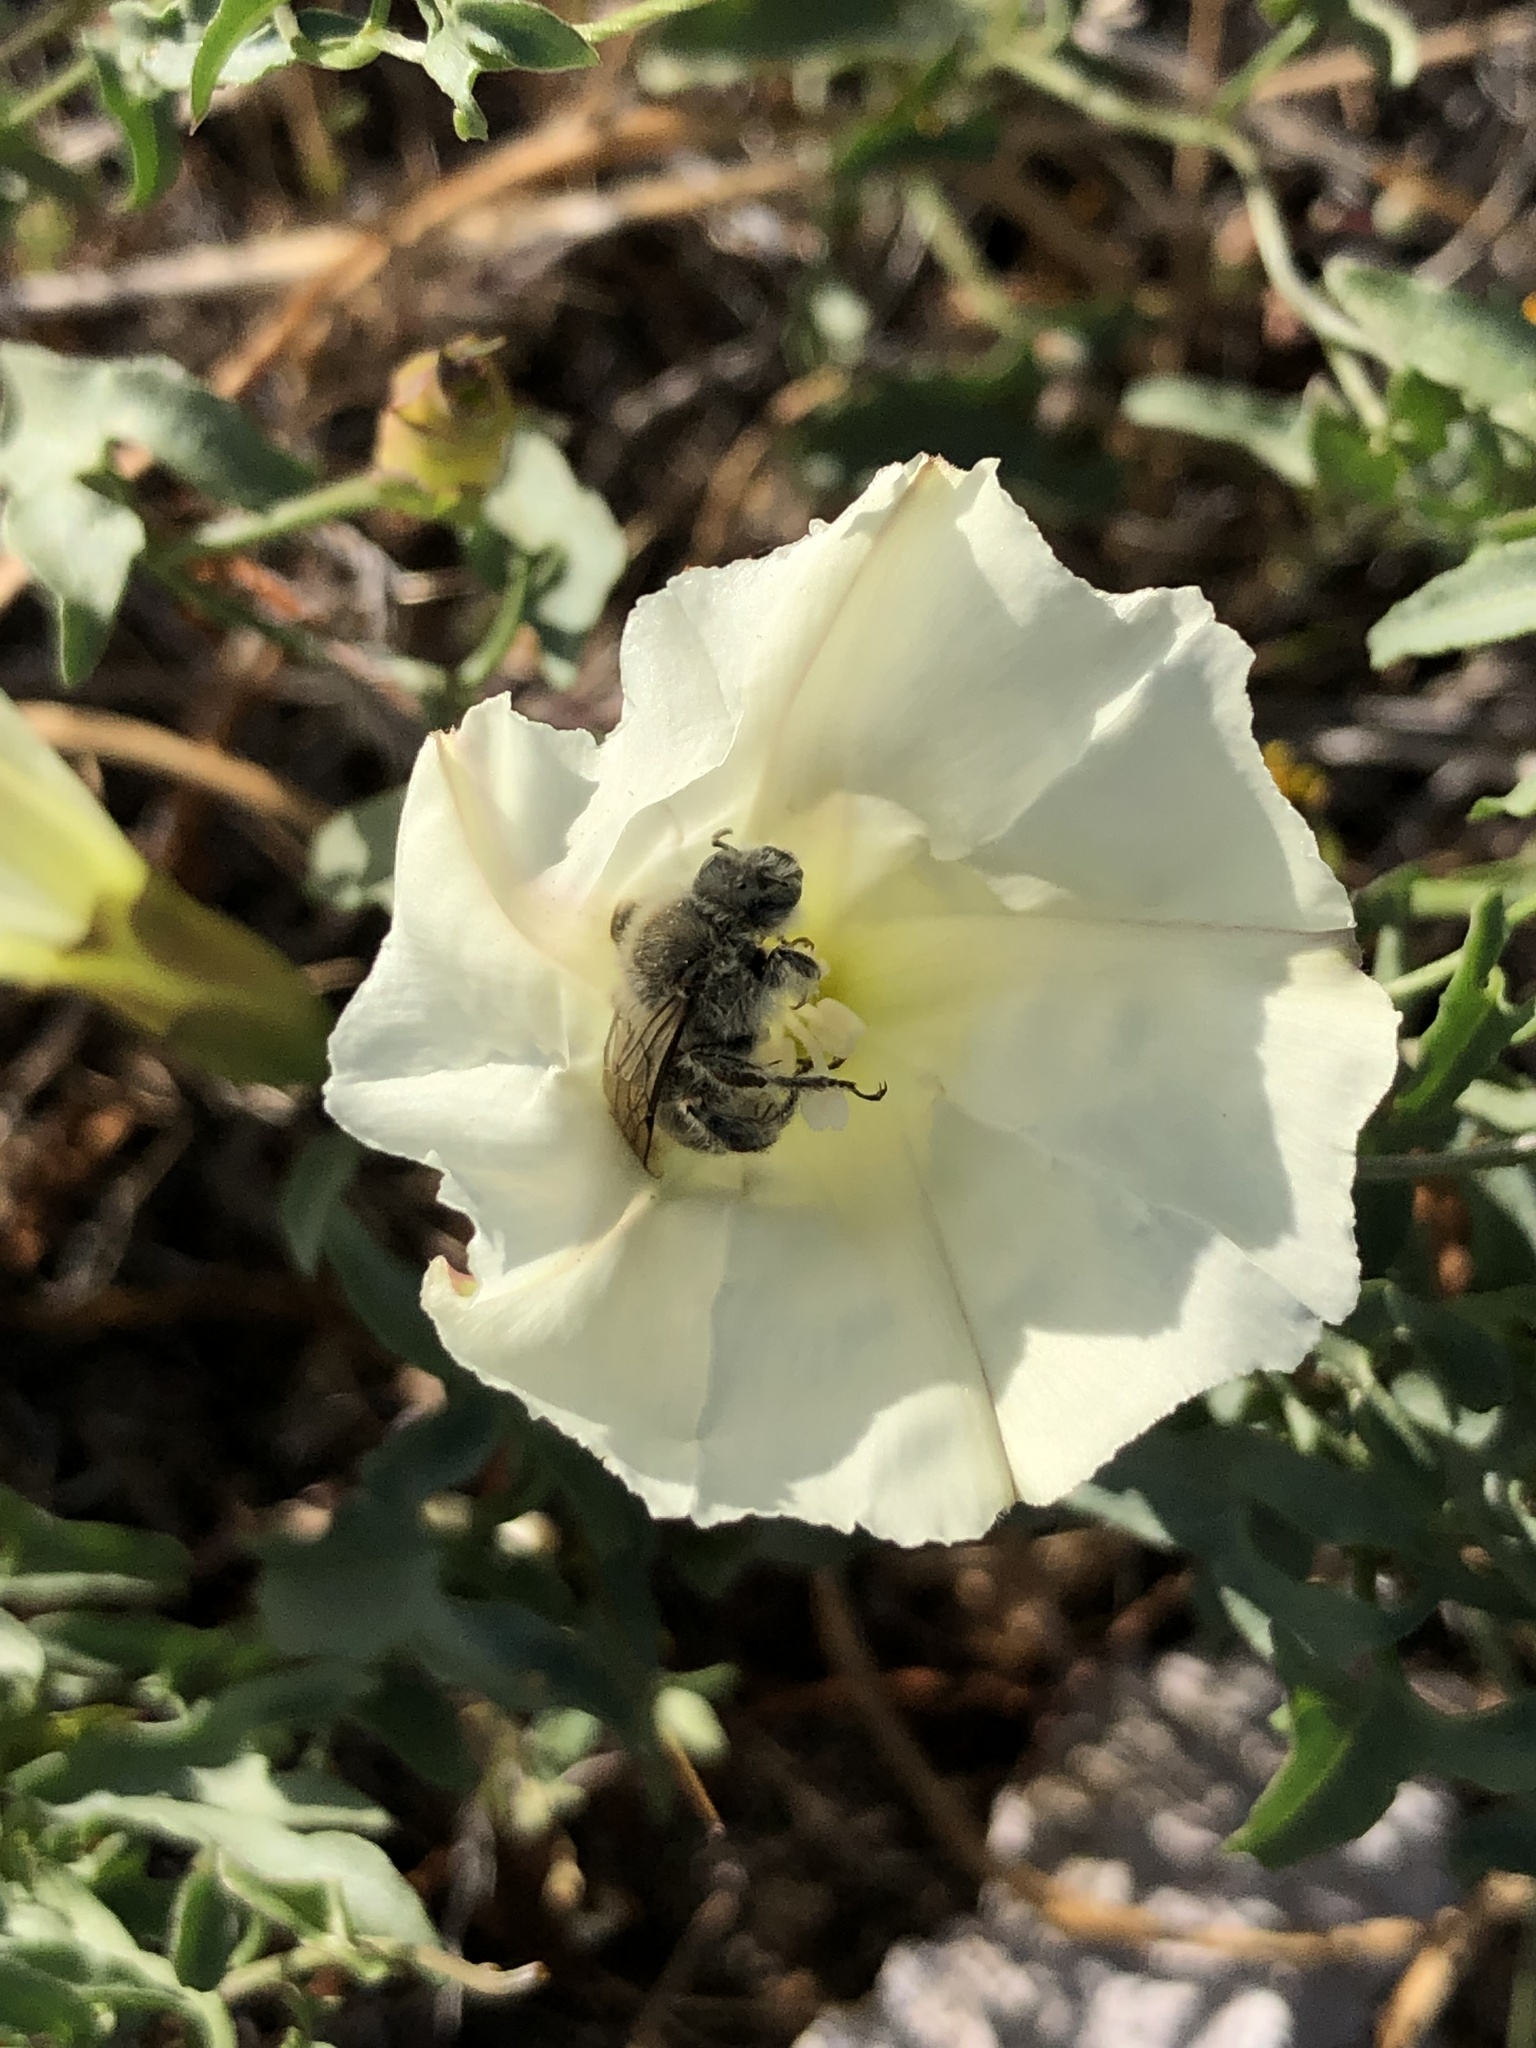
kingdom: Animalia
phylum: Arthropoda
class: Insecta
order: Hymenoptera
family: Apidae
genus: Diadasia
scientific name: Diadasia bituberculata
